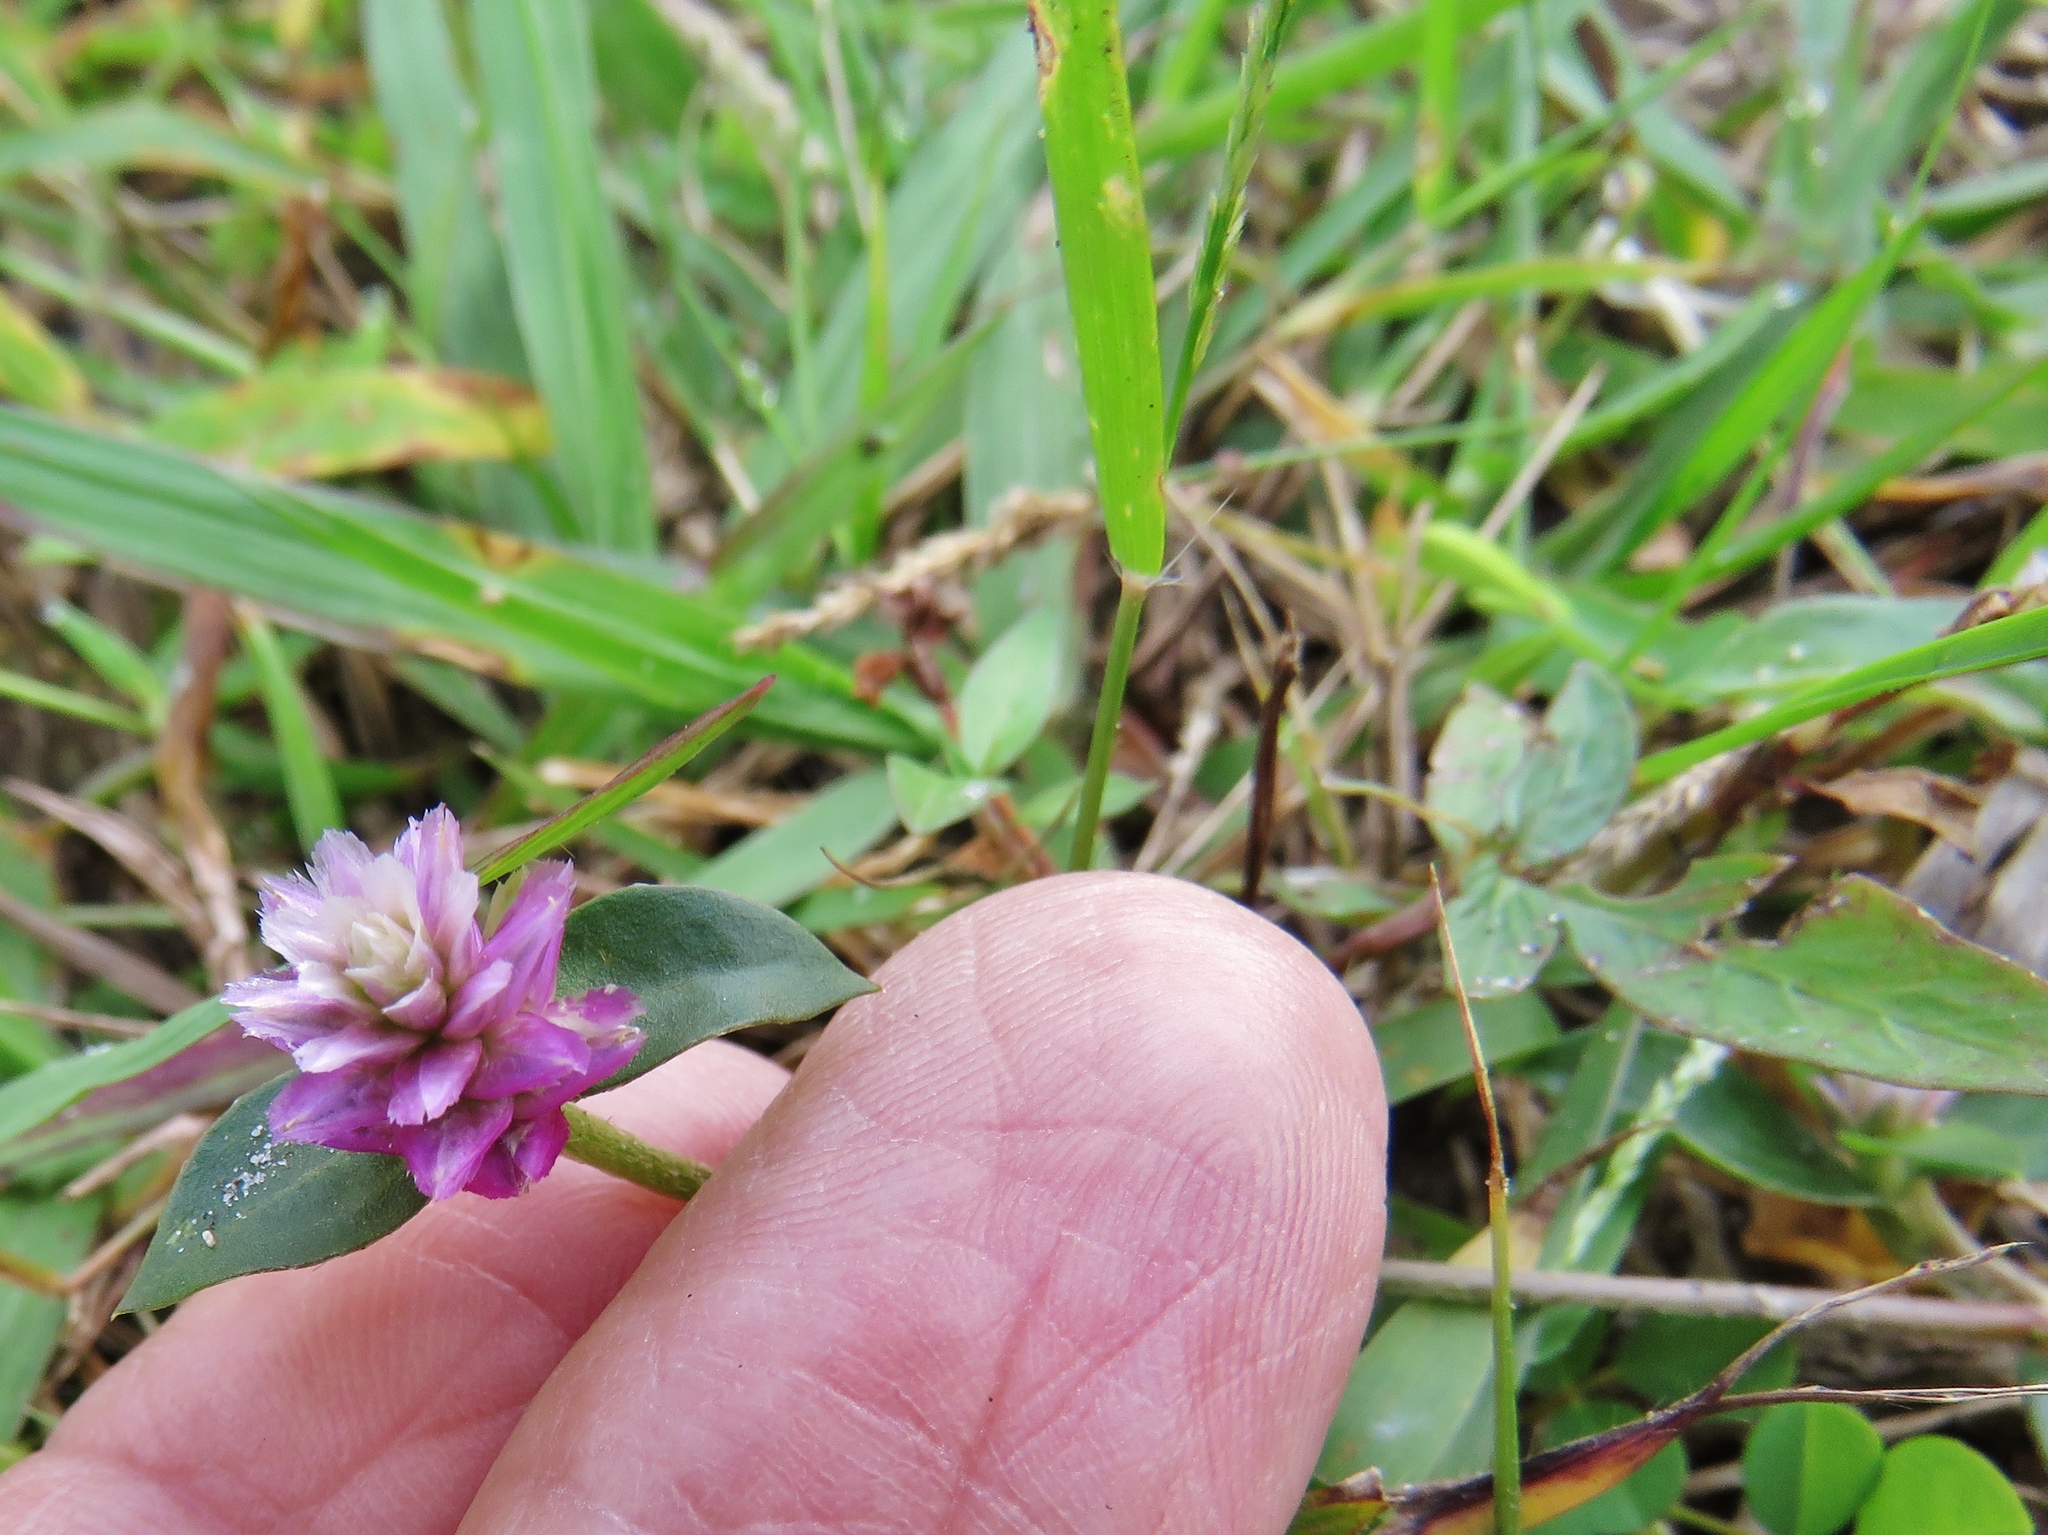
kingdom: Plantae
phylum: Tracheophyta
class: Magnoliopsida
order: Caryophyllales
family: Amaranthaceae
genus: Gomphrena
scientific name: Gomphrena serrata
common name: Arrasa con todo
